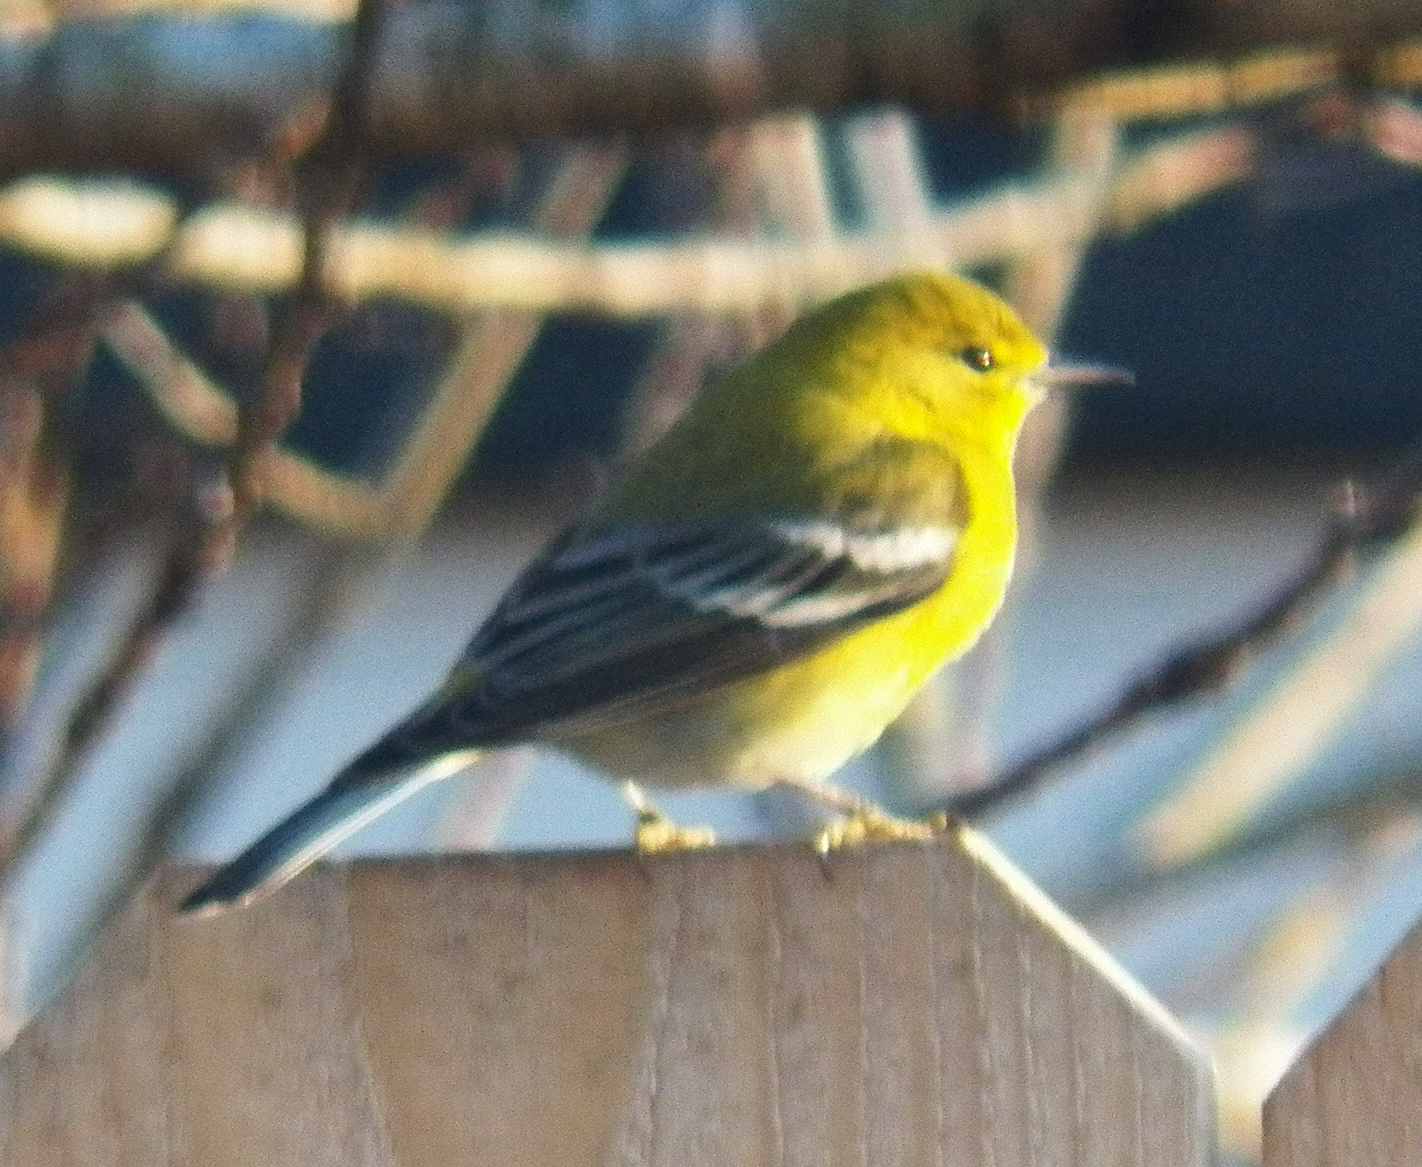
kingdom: Animalia
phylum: Chordata
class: Aves
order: Passeriformes
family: Parulidae
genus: Setophaga
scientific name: Setophaga pinus
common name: Pine warbler
